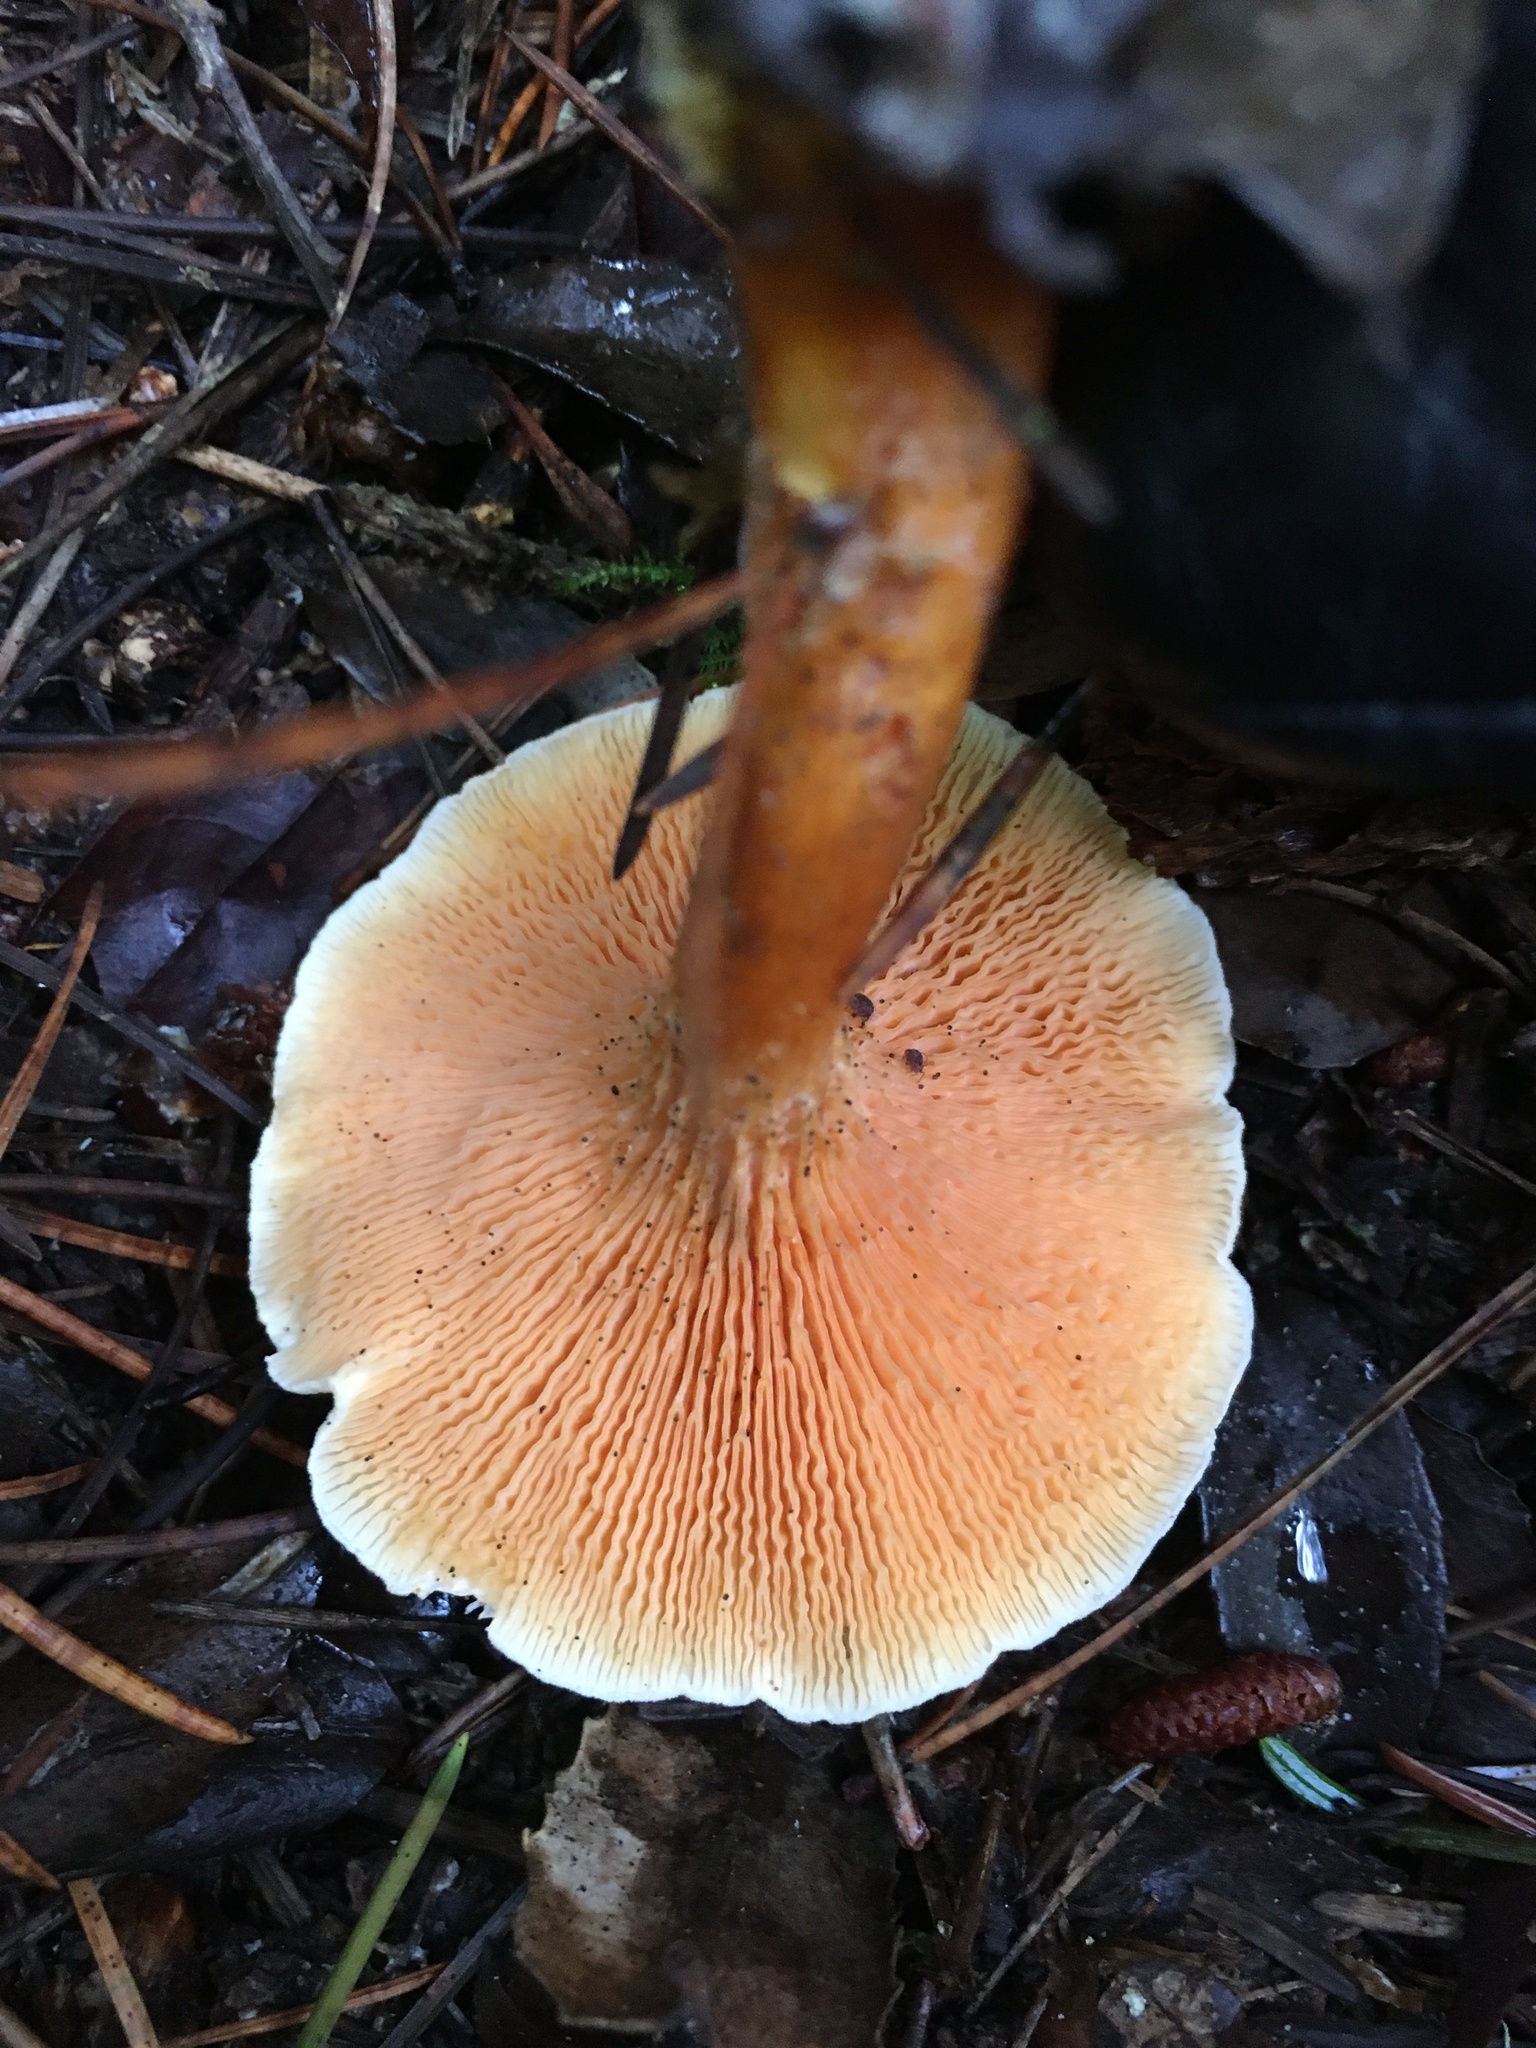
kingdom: Fungi
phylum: Basidiomycota
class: Agaricomycetes
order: Boletales
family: Hygrophoropsidaceae
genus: Hygrophoropsis
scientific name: Hygrophoropsis aurantiaca
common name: False chanterelle
